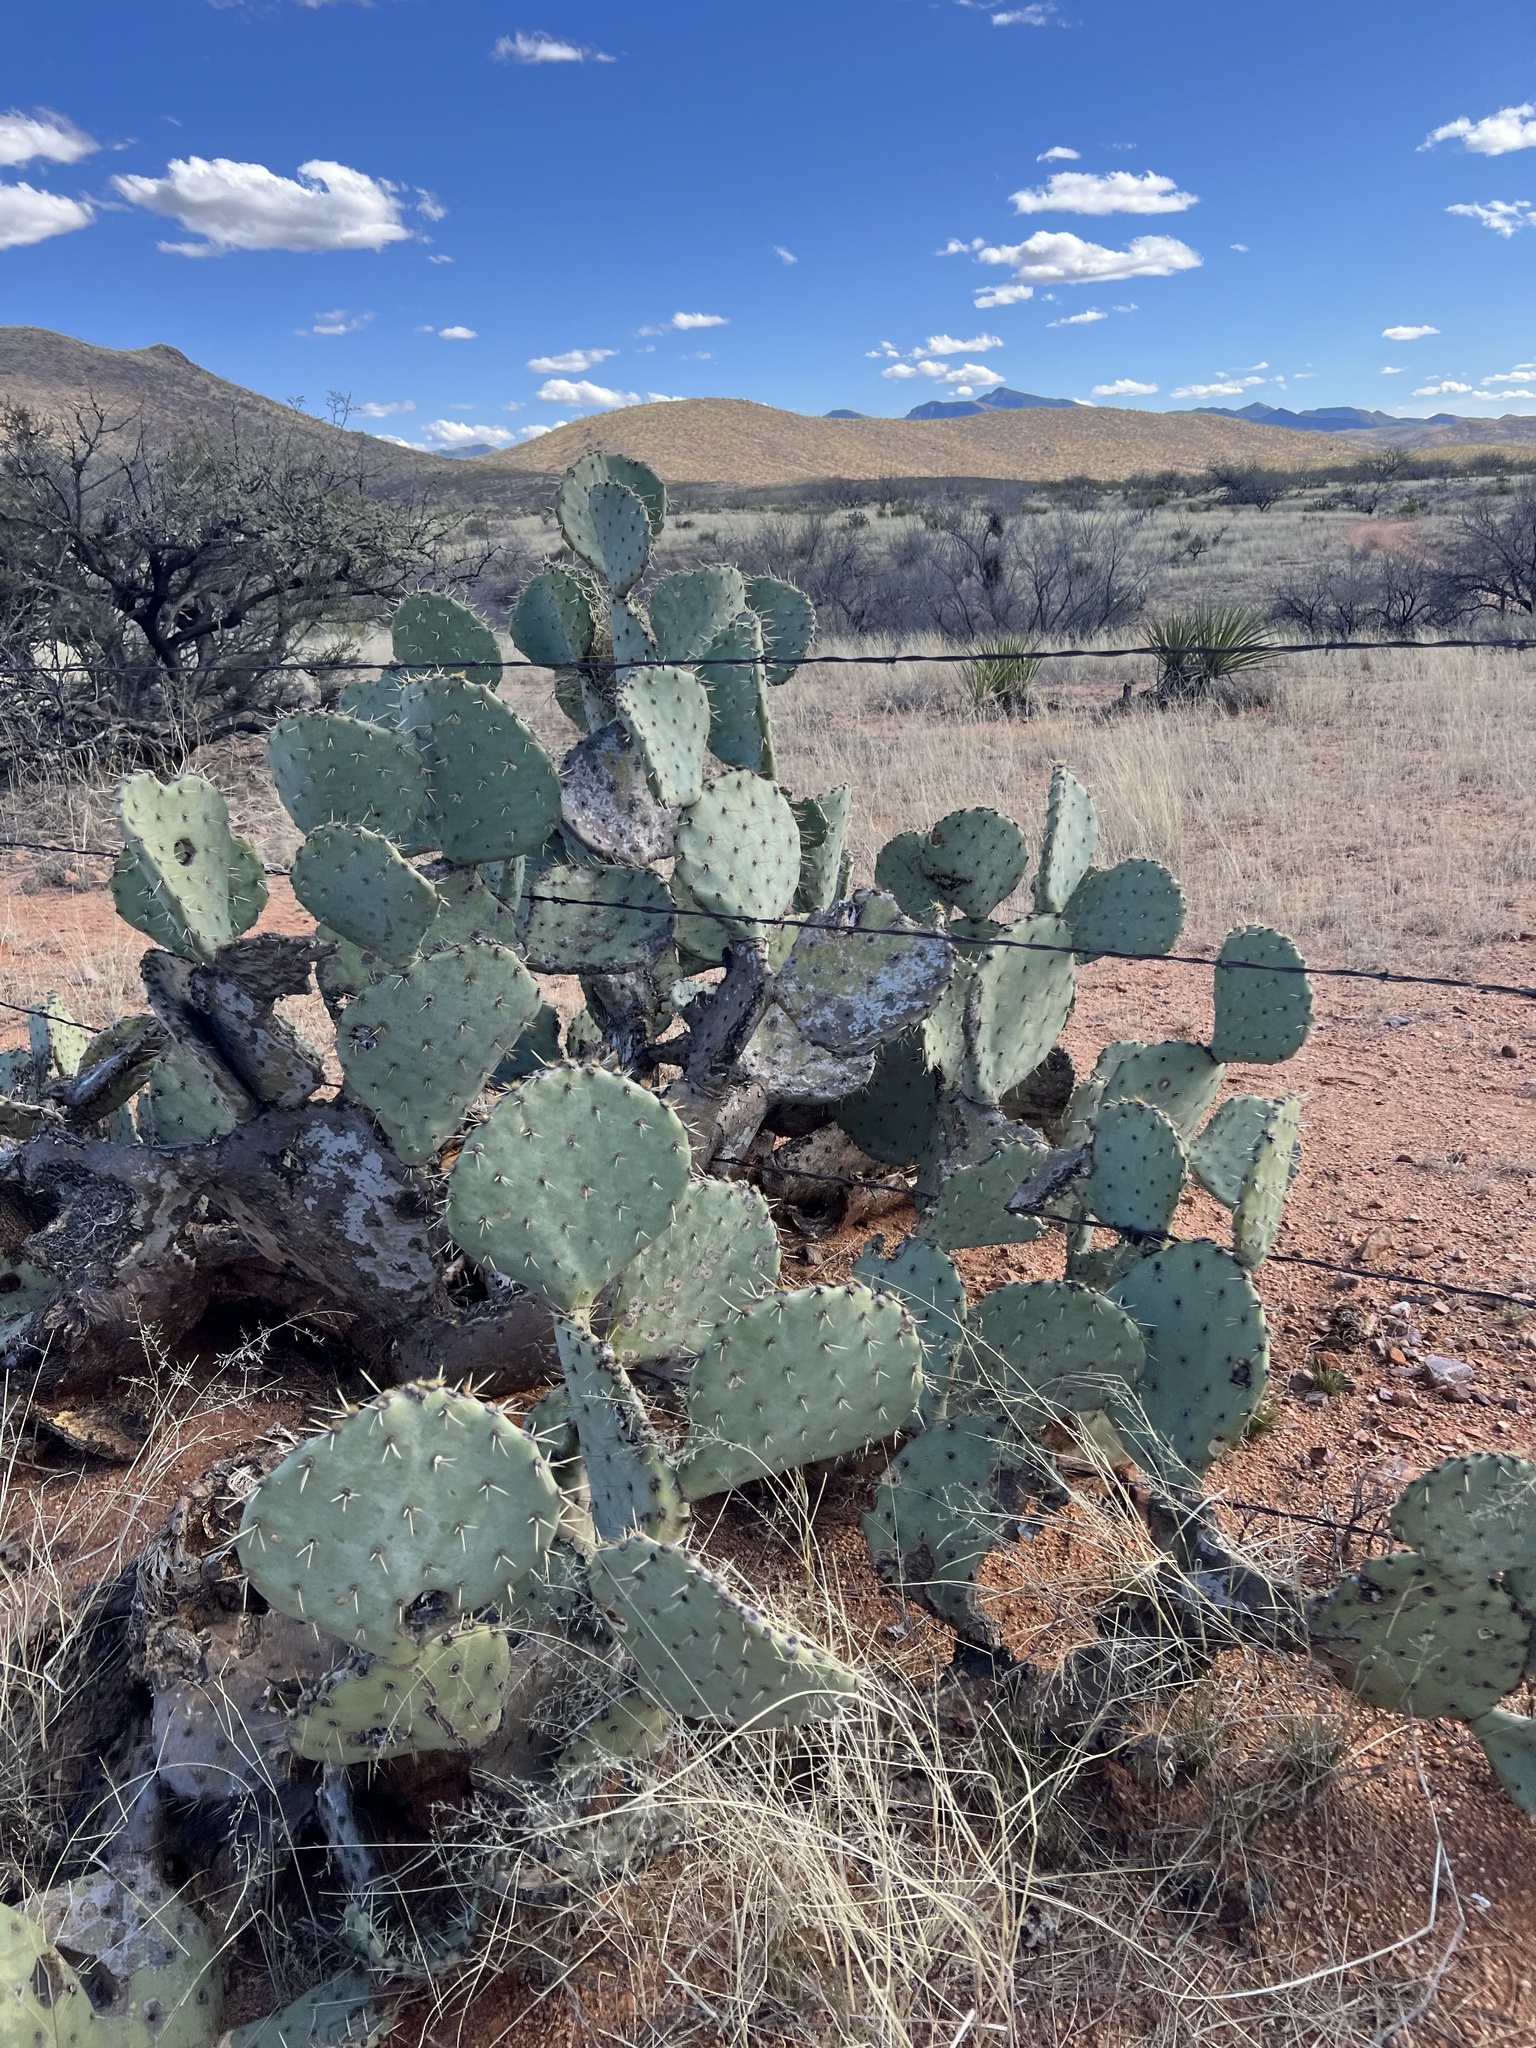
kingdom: Plantae
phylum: Tracheophyta
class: Magnoliopsida
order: Caryophyllales
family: Cactaceae
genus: Opuntia
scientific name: Opuntia engelmannii
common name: Cactus-apple
